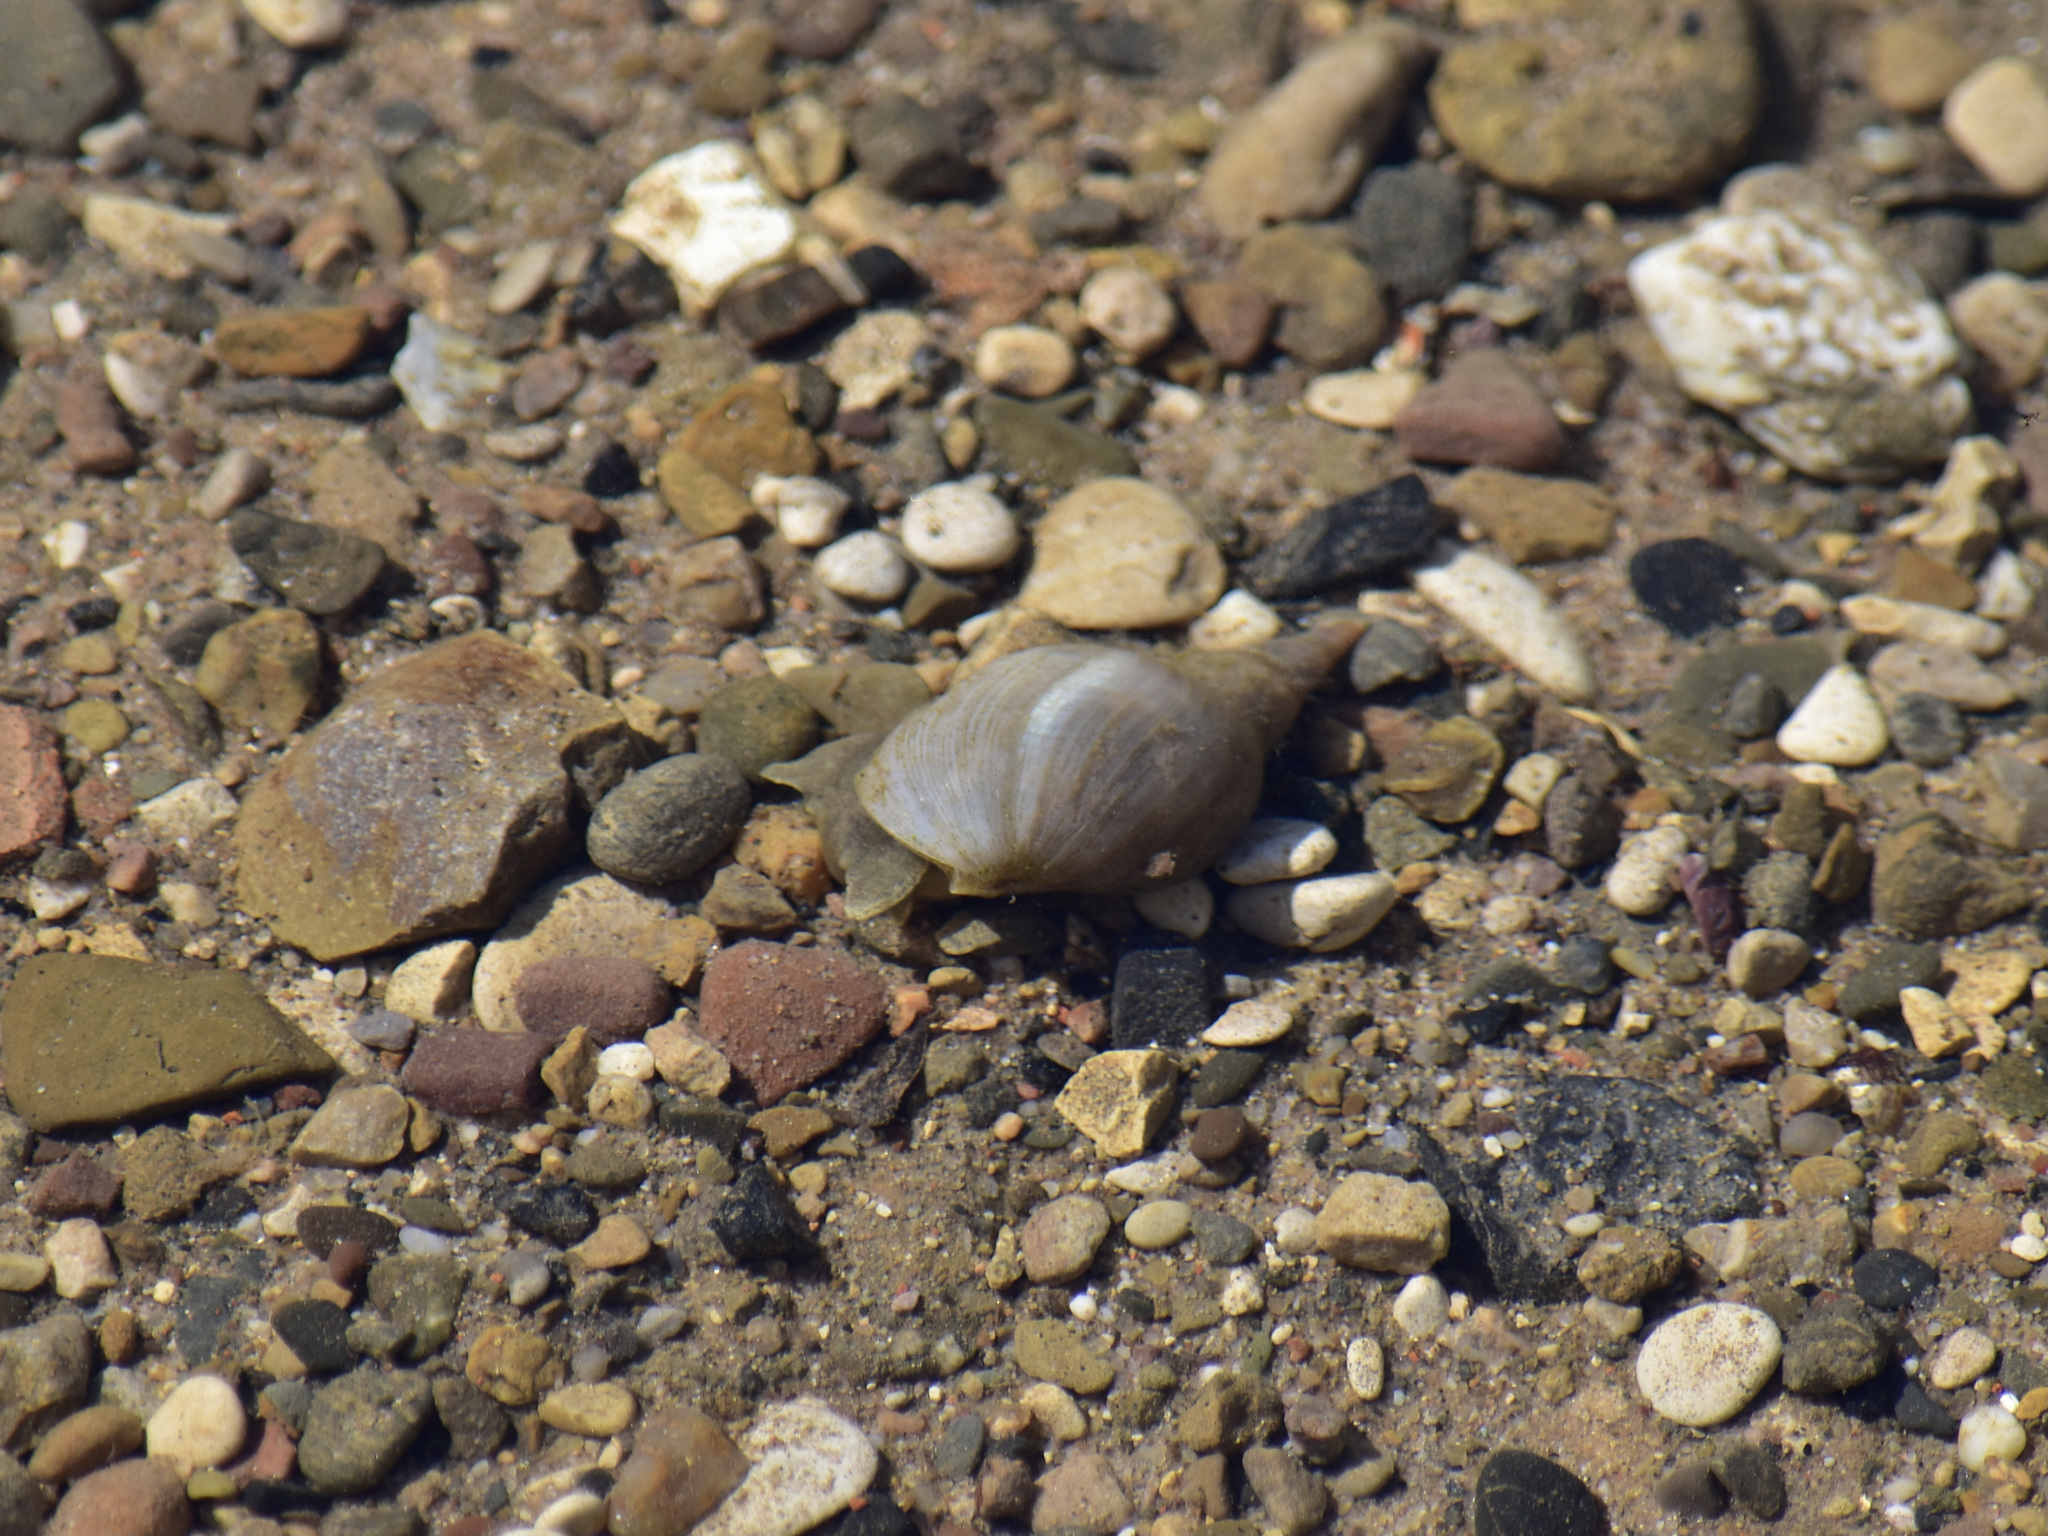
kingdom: Animalia
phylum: Mollusca
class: Gastropoda
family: Lymnaeidae
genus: Lymnaea
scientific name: Lymnaea stagnalis
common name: Great pond snail
